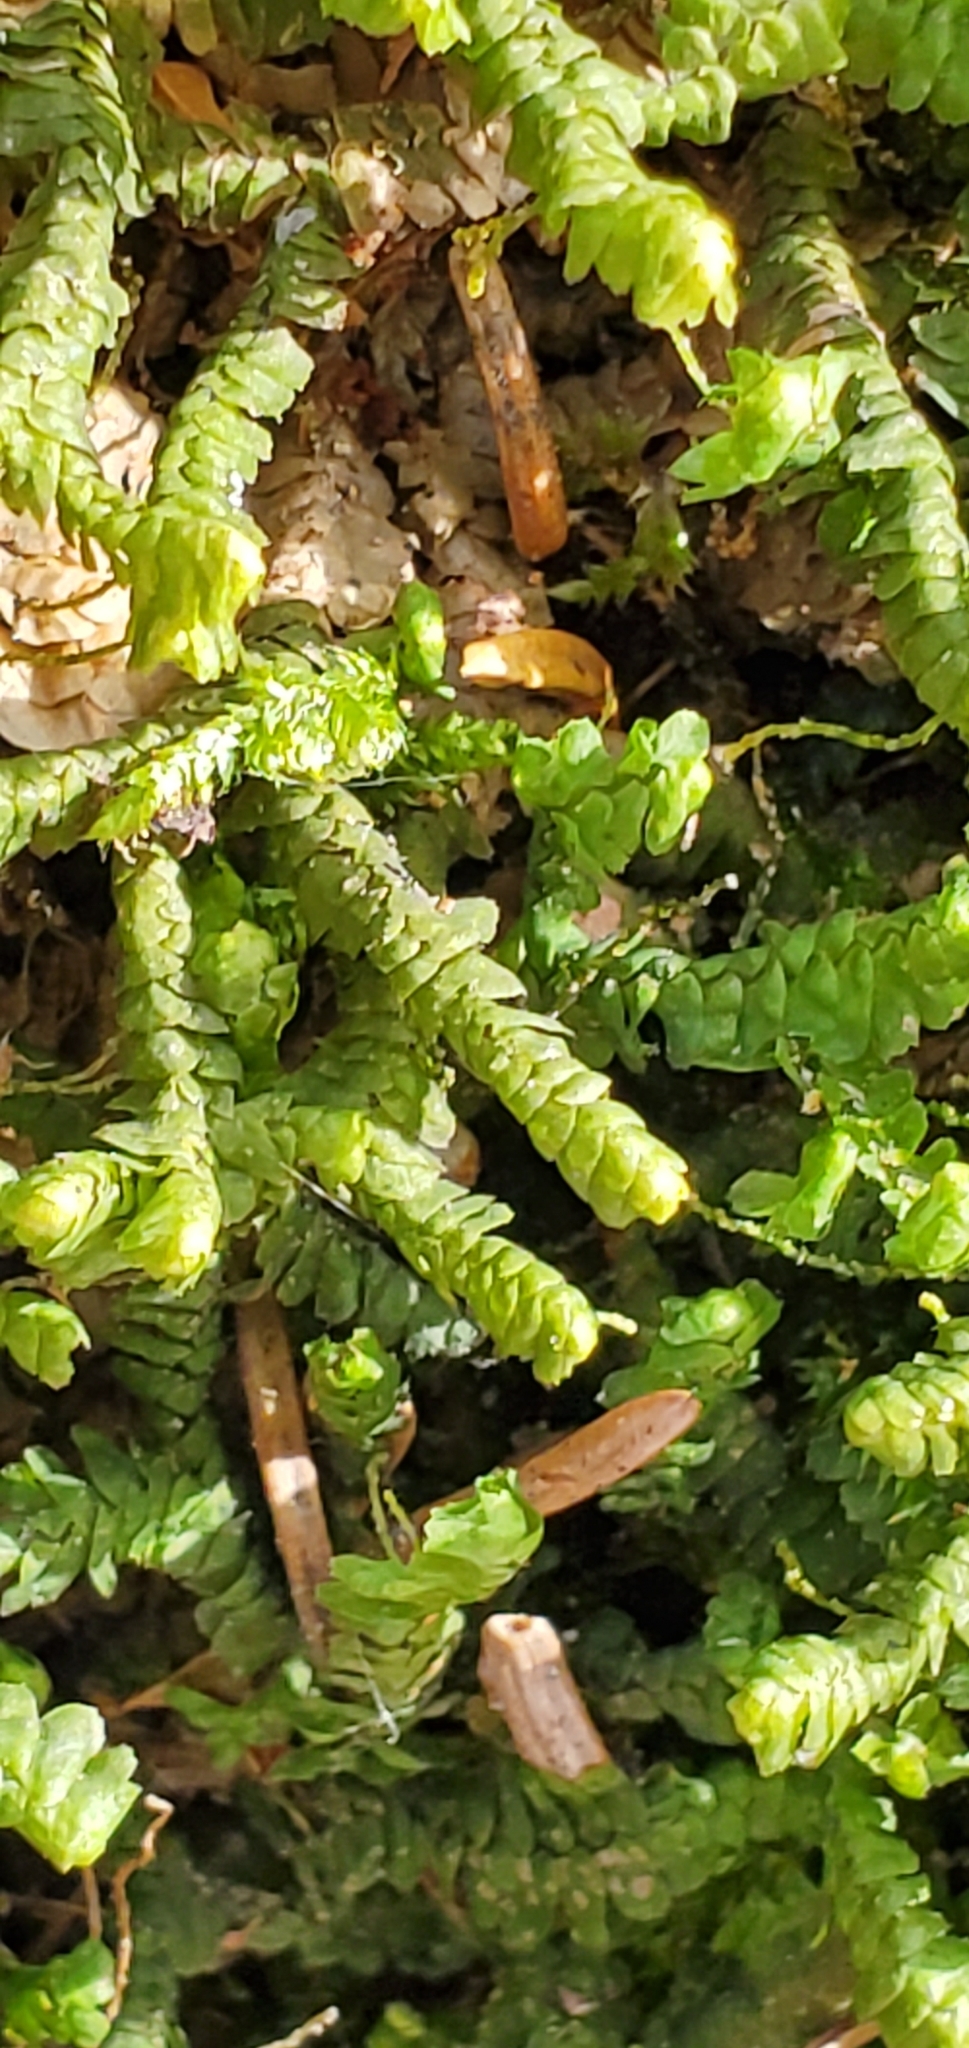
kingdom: Plantae
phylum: Marchantiophyta
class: Jungermanniopsida
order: Jungermanniales
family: Lepidoziaceae
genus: Bazzania
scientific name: Bazzania trilobata
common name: Three-lobed whipwort
